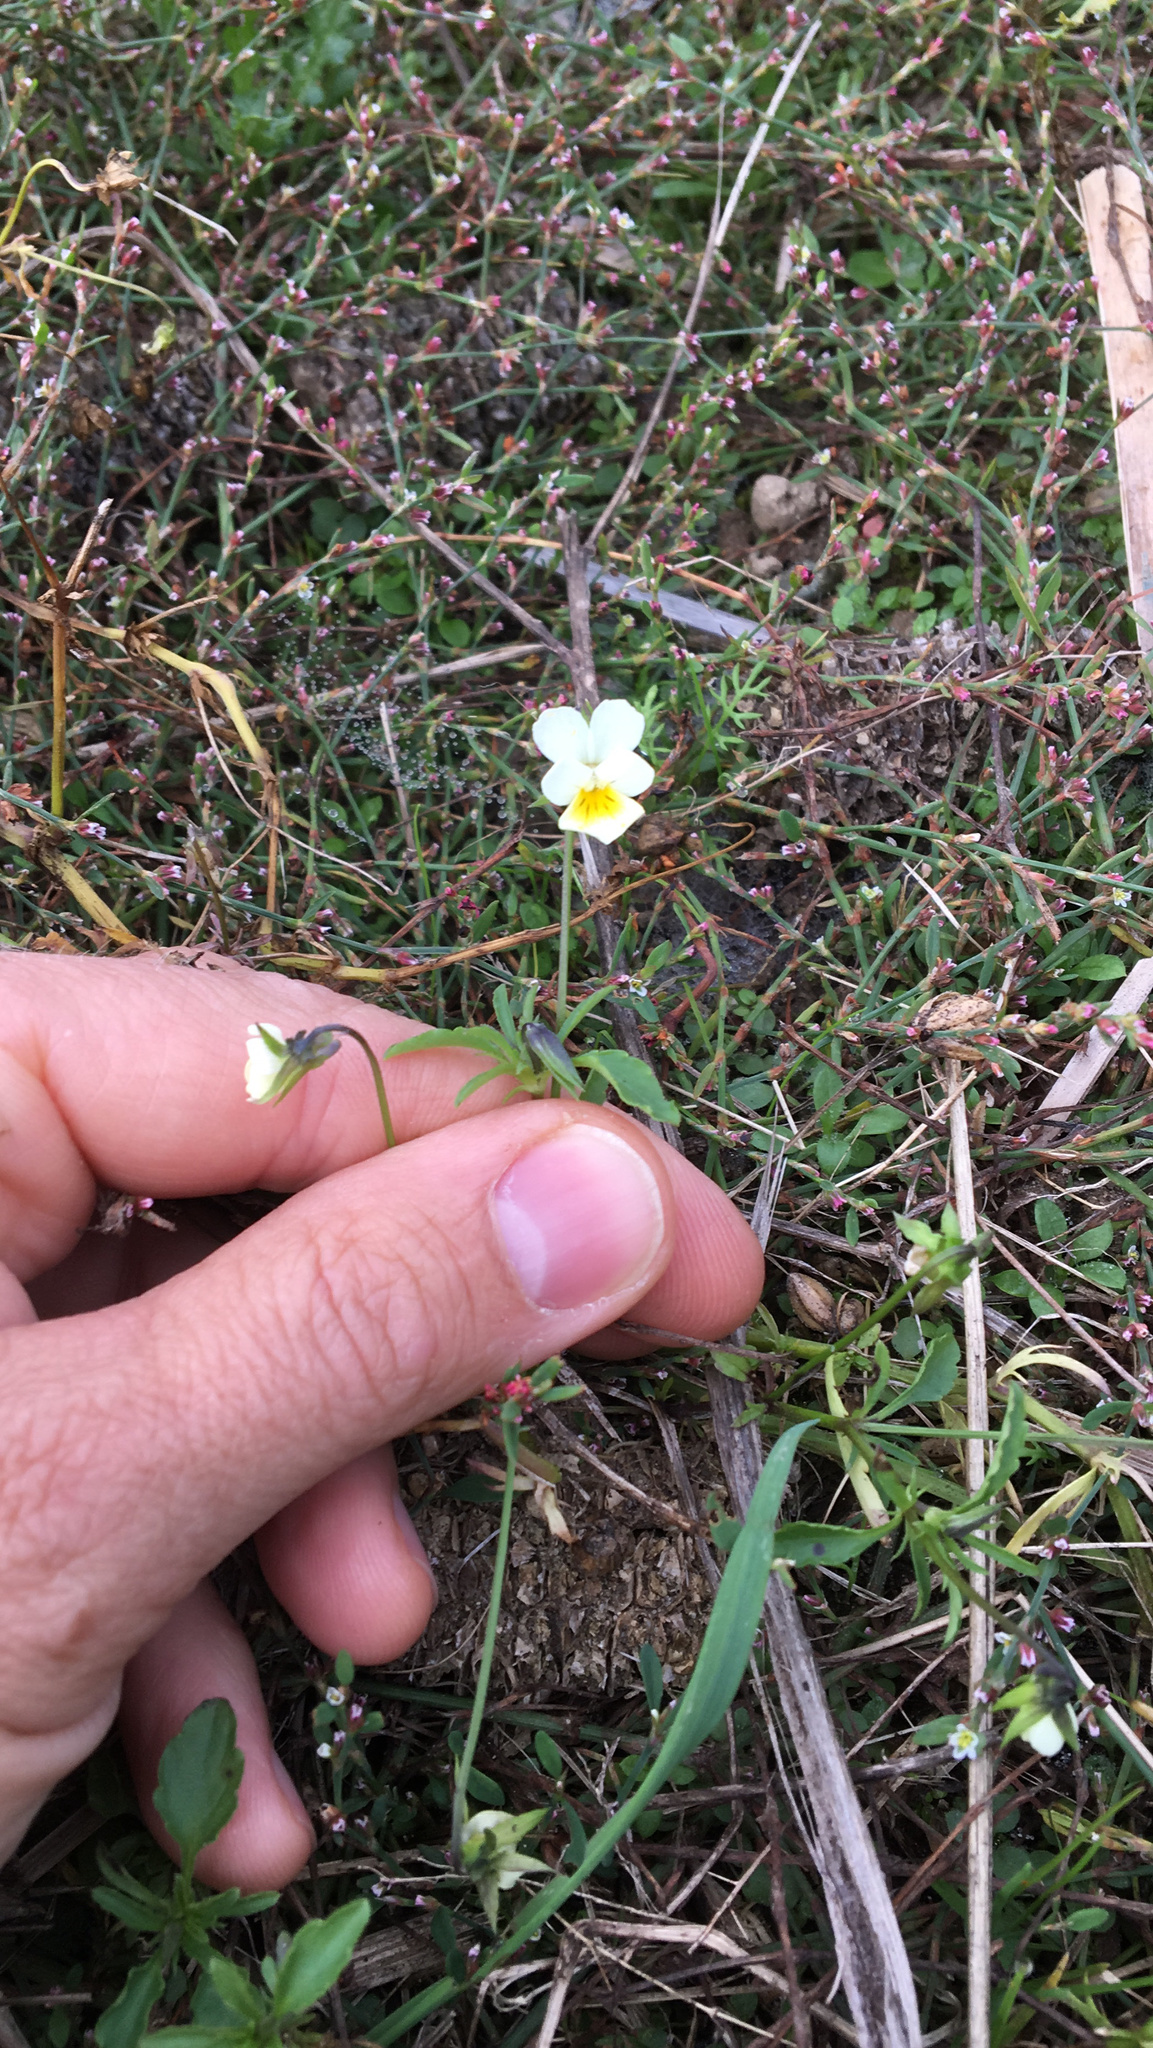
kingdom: Plantae
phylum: Tracheophyta
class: Magnoliopsida
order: Malpighiales
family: Violaceae
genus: Viola
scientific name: Viola arvensis
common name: Field pansy
